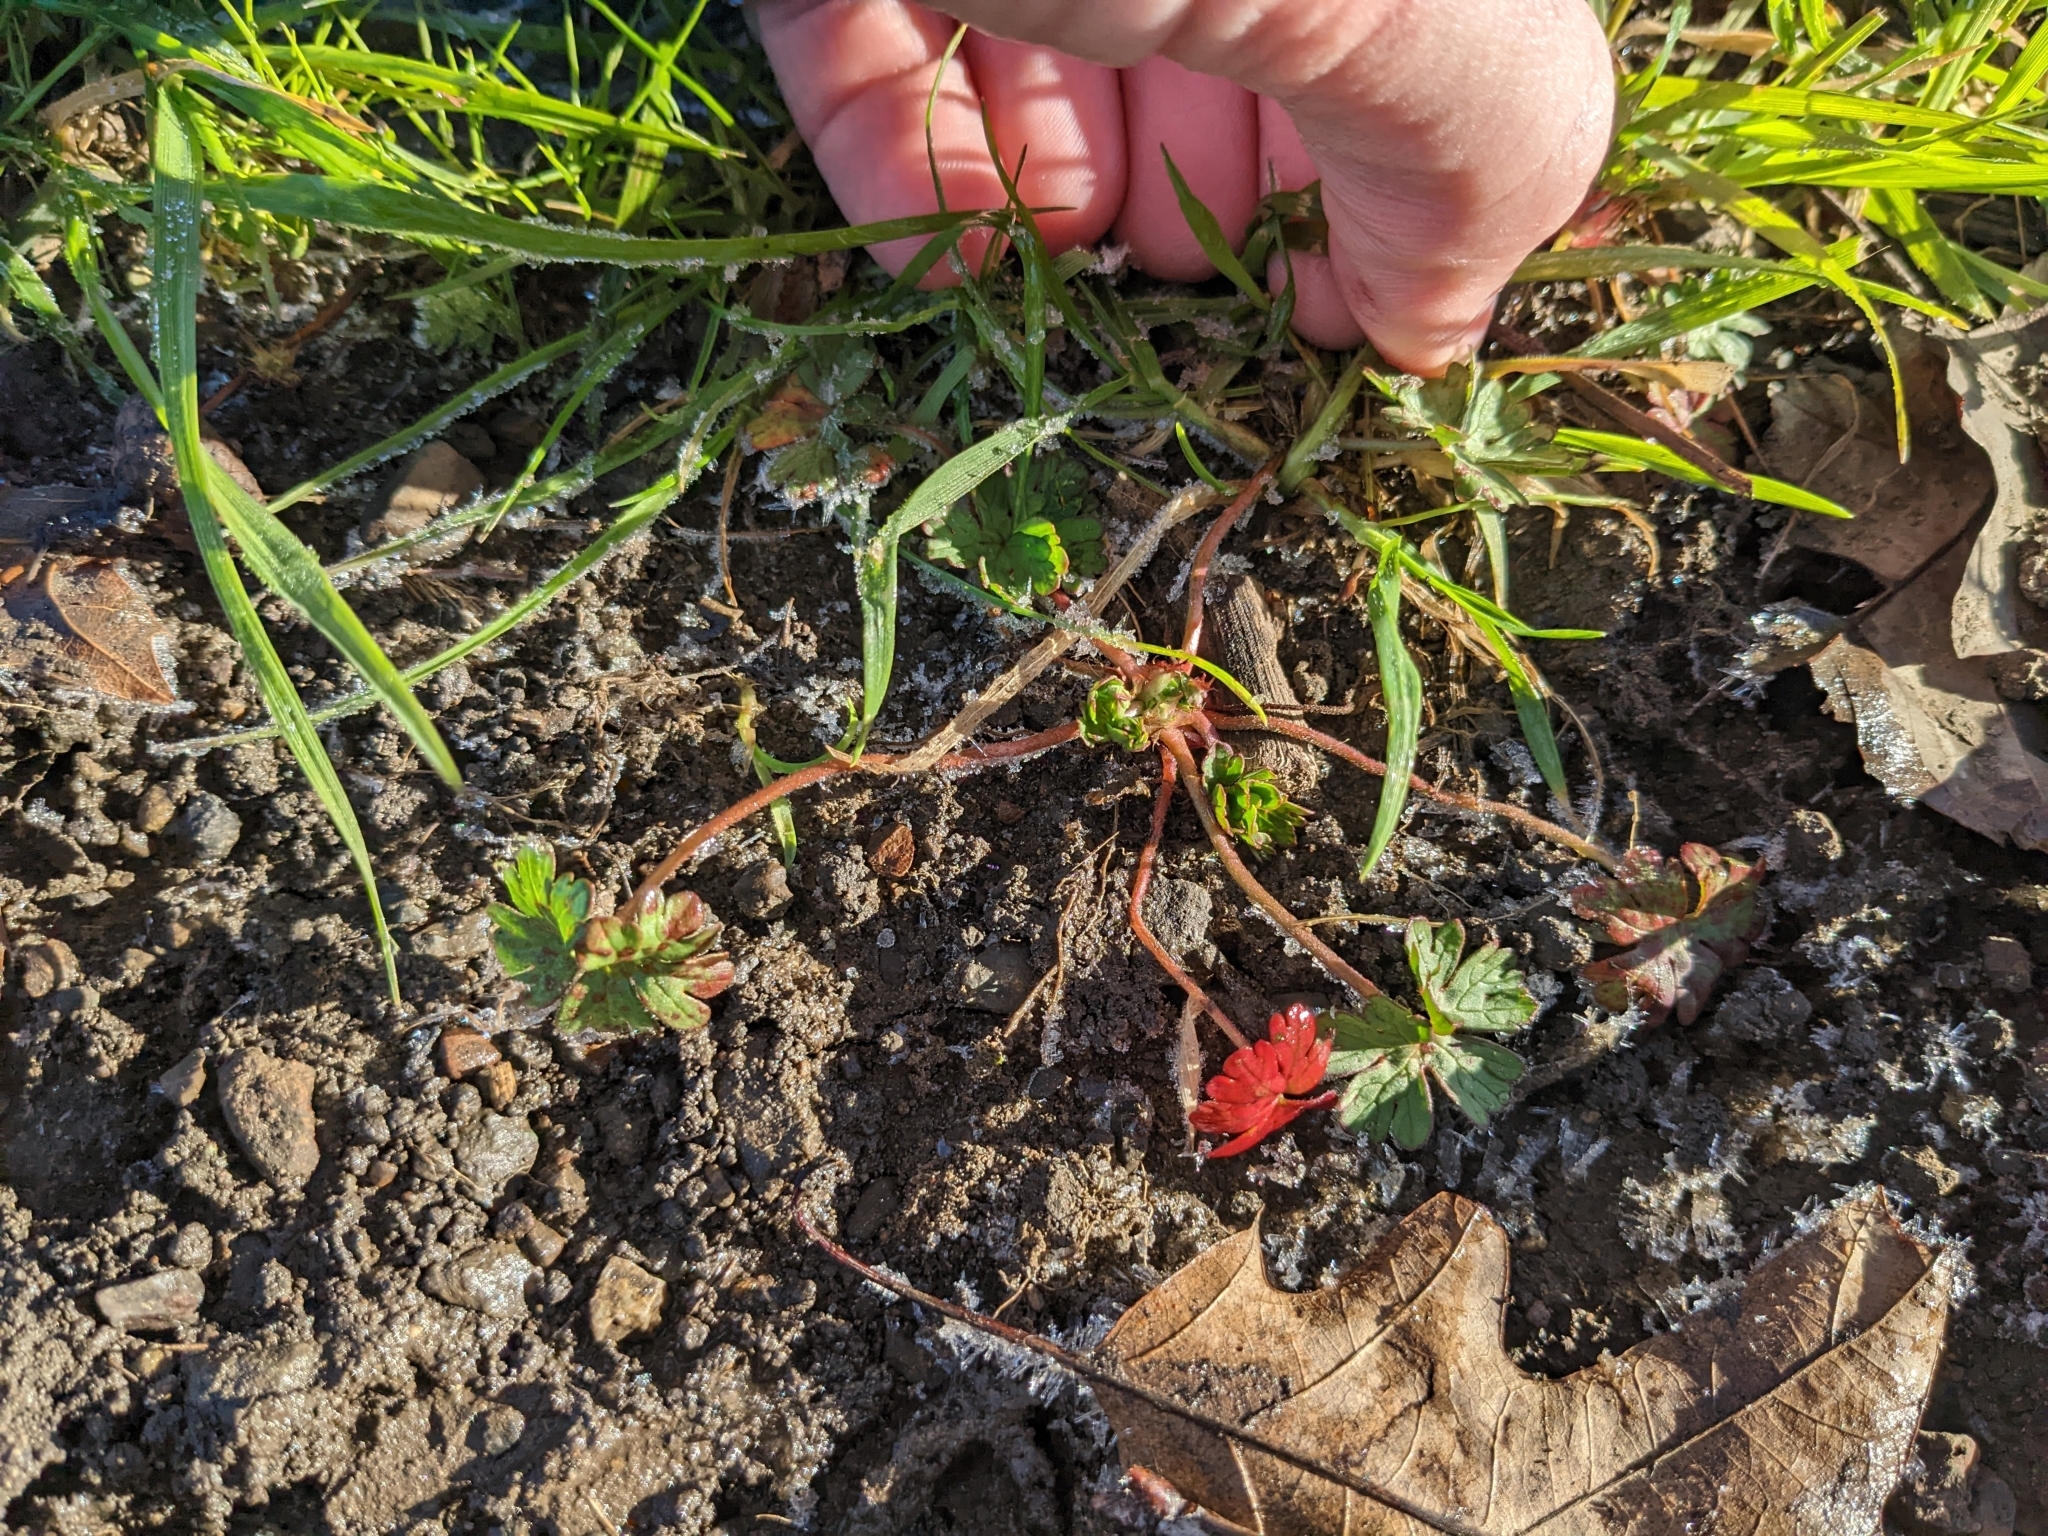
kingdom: Plantae
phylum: Tracheophyta
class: Magnoliopsida
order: Geraniales
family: Geraniaceae
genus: Geranium
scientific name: Geranium
